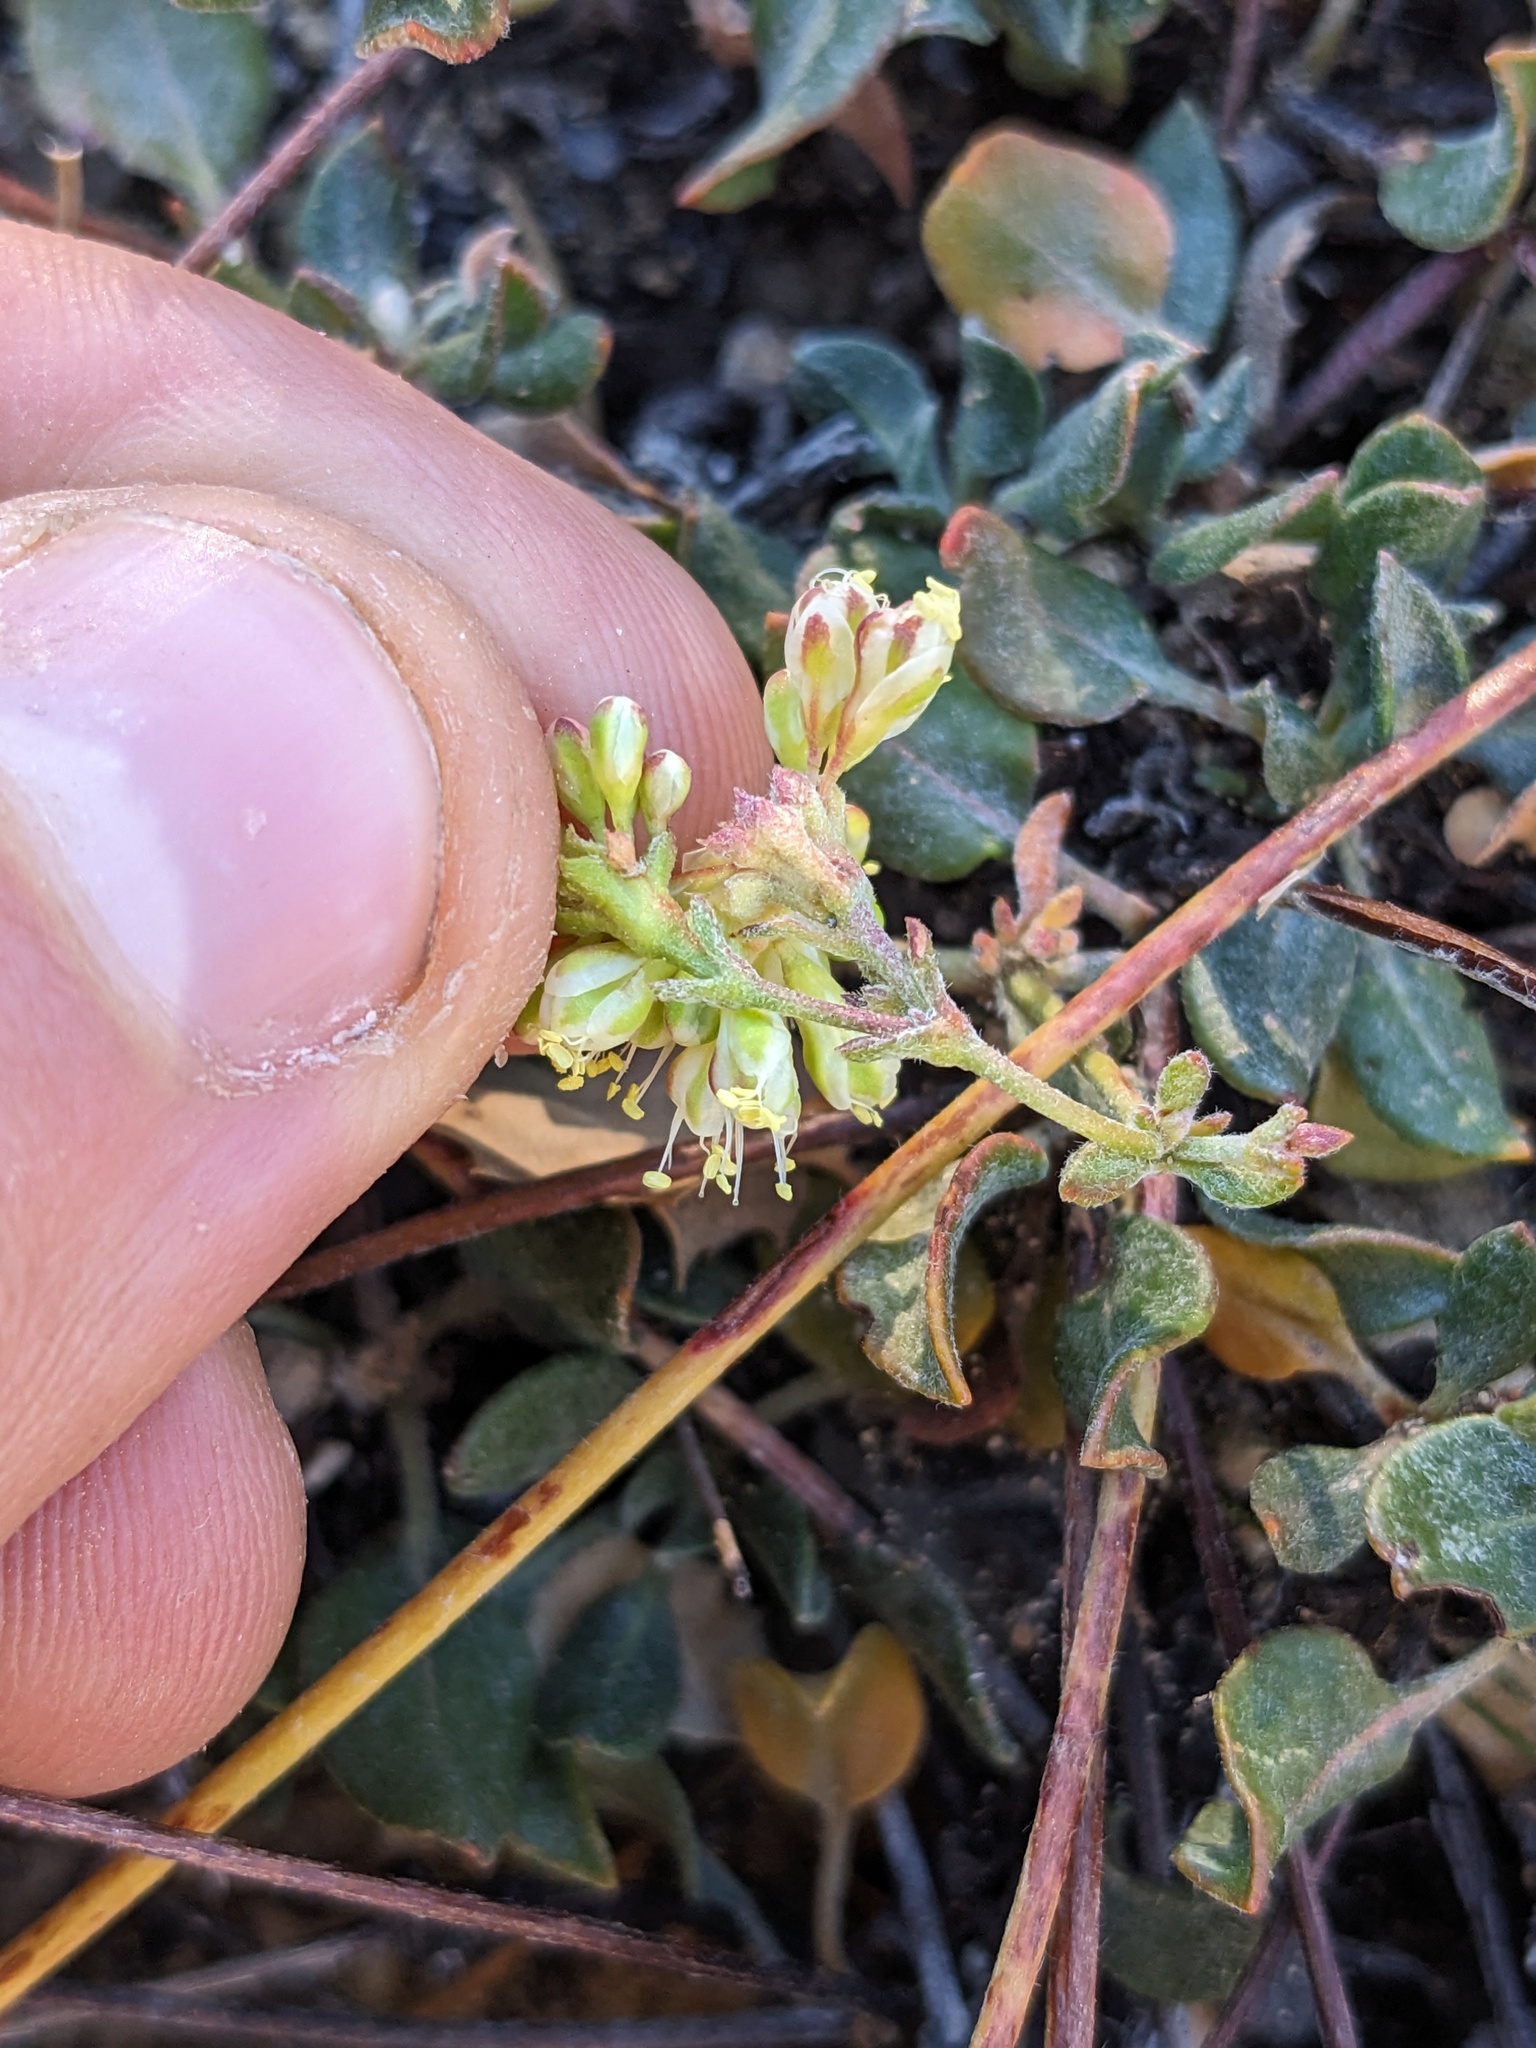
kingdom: Plantae
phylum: Tracheophyta
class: Magnoliopsida
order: Caryophyllales
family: Polygonaceae
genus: Eriogonum
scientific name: Eriogonum umbellatum
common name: Sulfur-buckwheat
